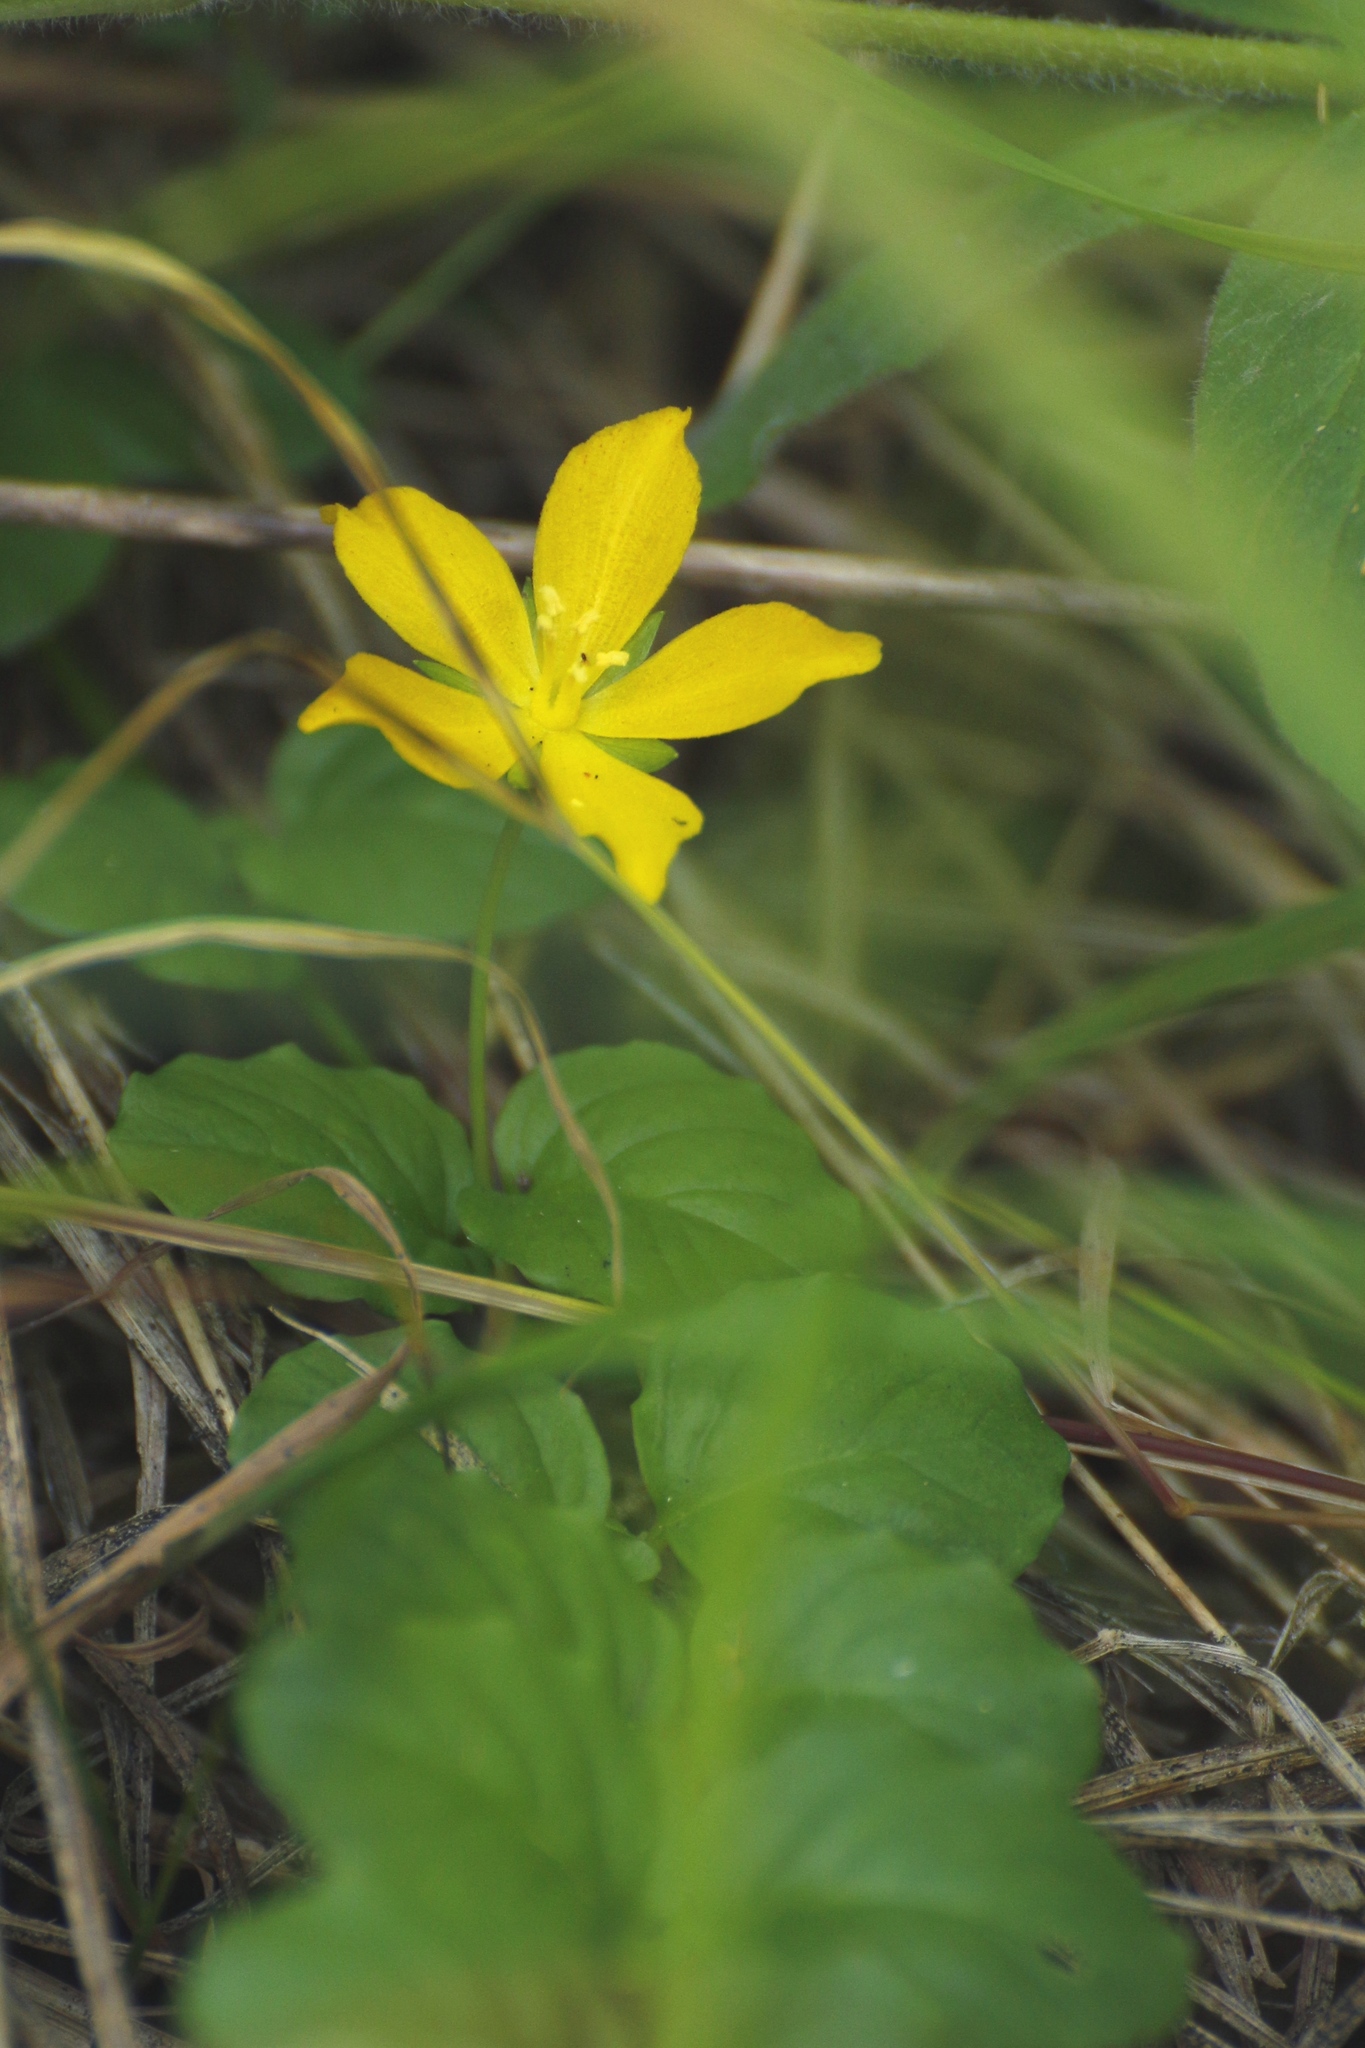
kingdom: Plantae
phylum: Tracheophyta
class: Magnoliopsida
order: Ericales
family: Primulaceae
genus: Lysimachia
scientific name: Lysimachia nummularia
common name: Moneywort
